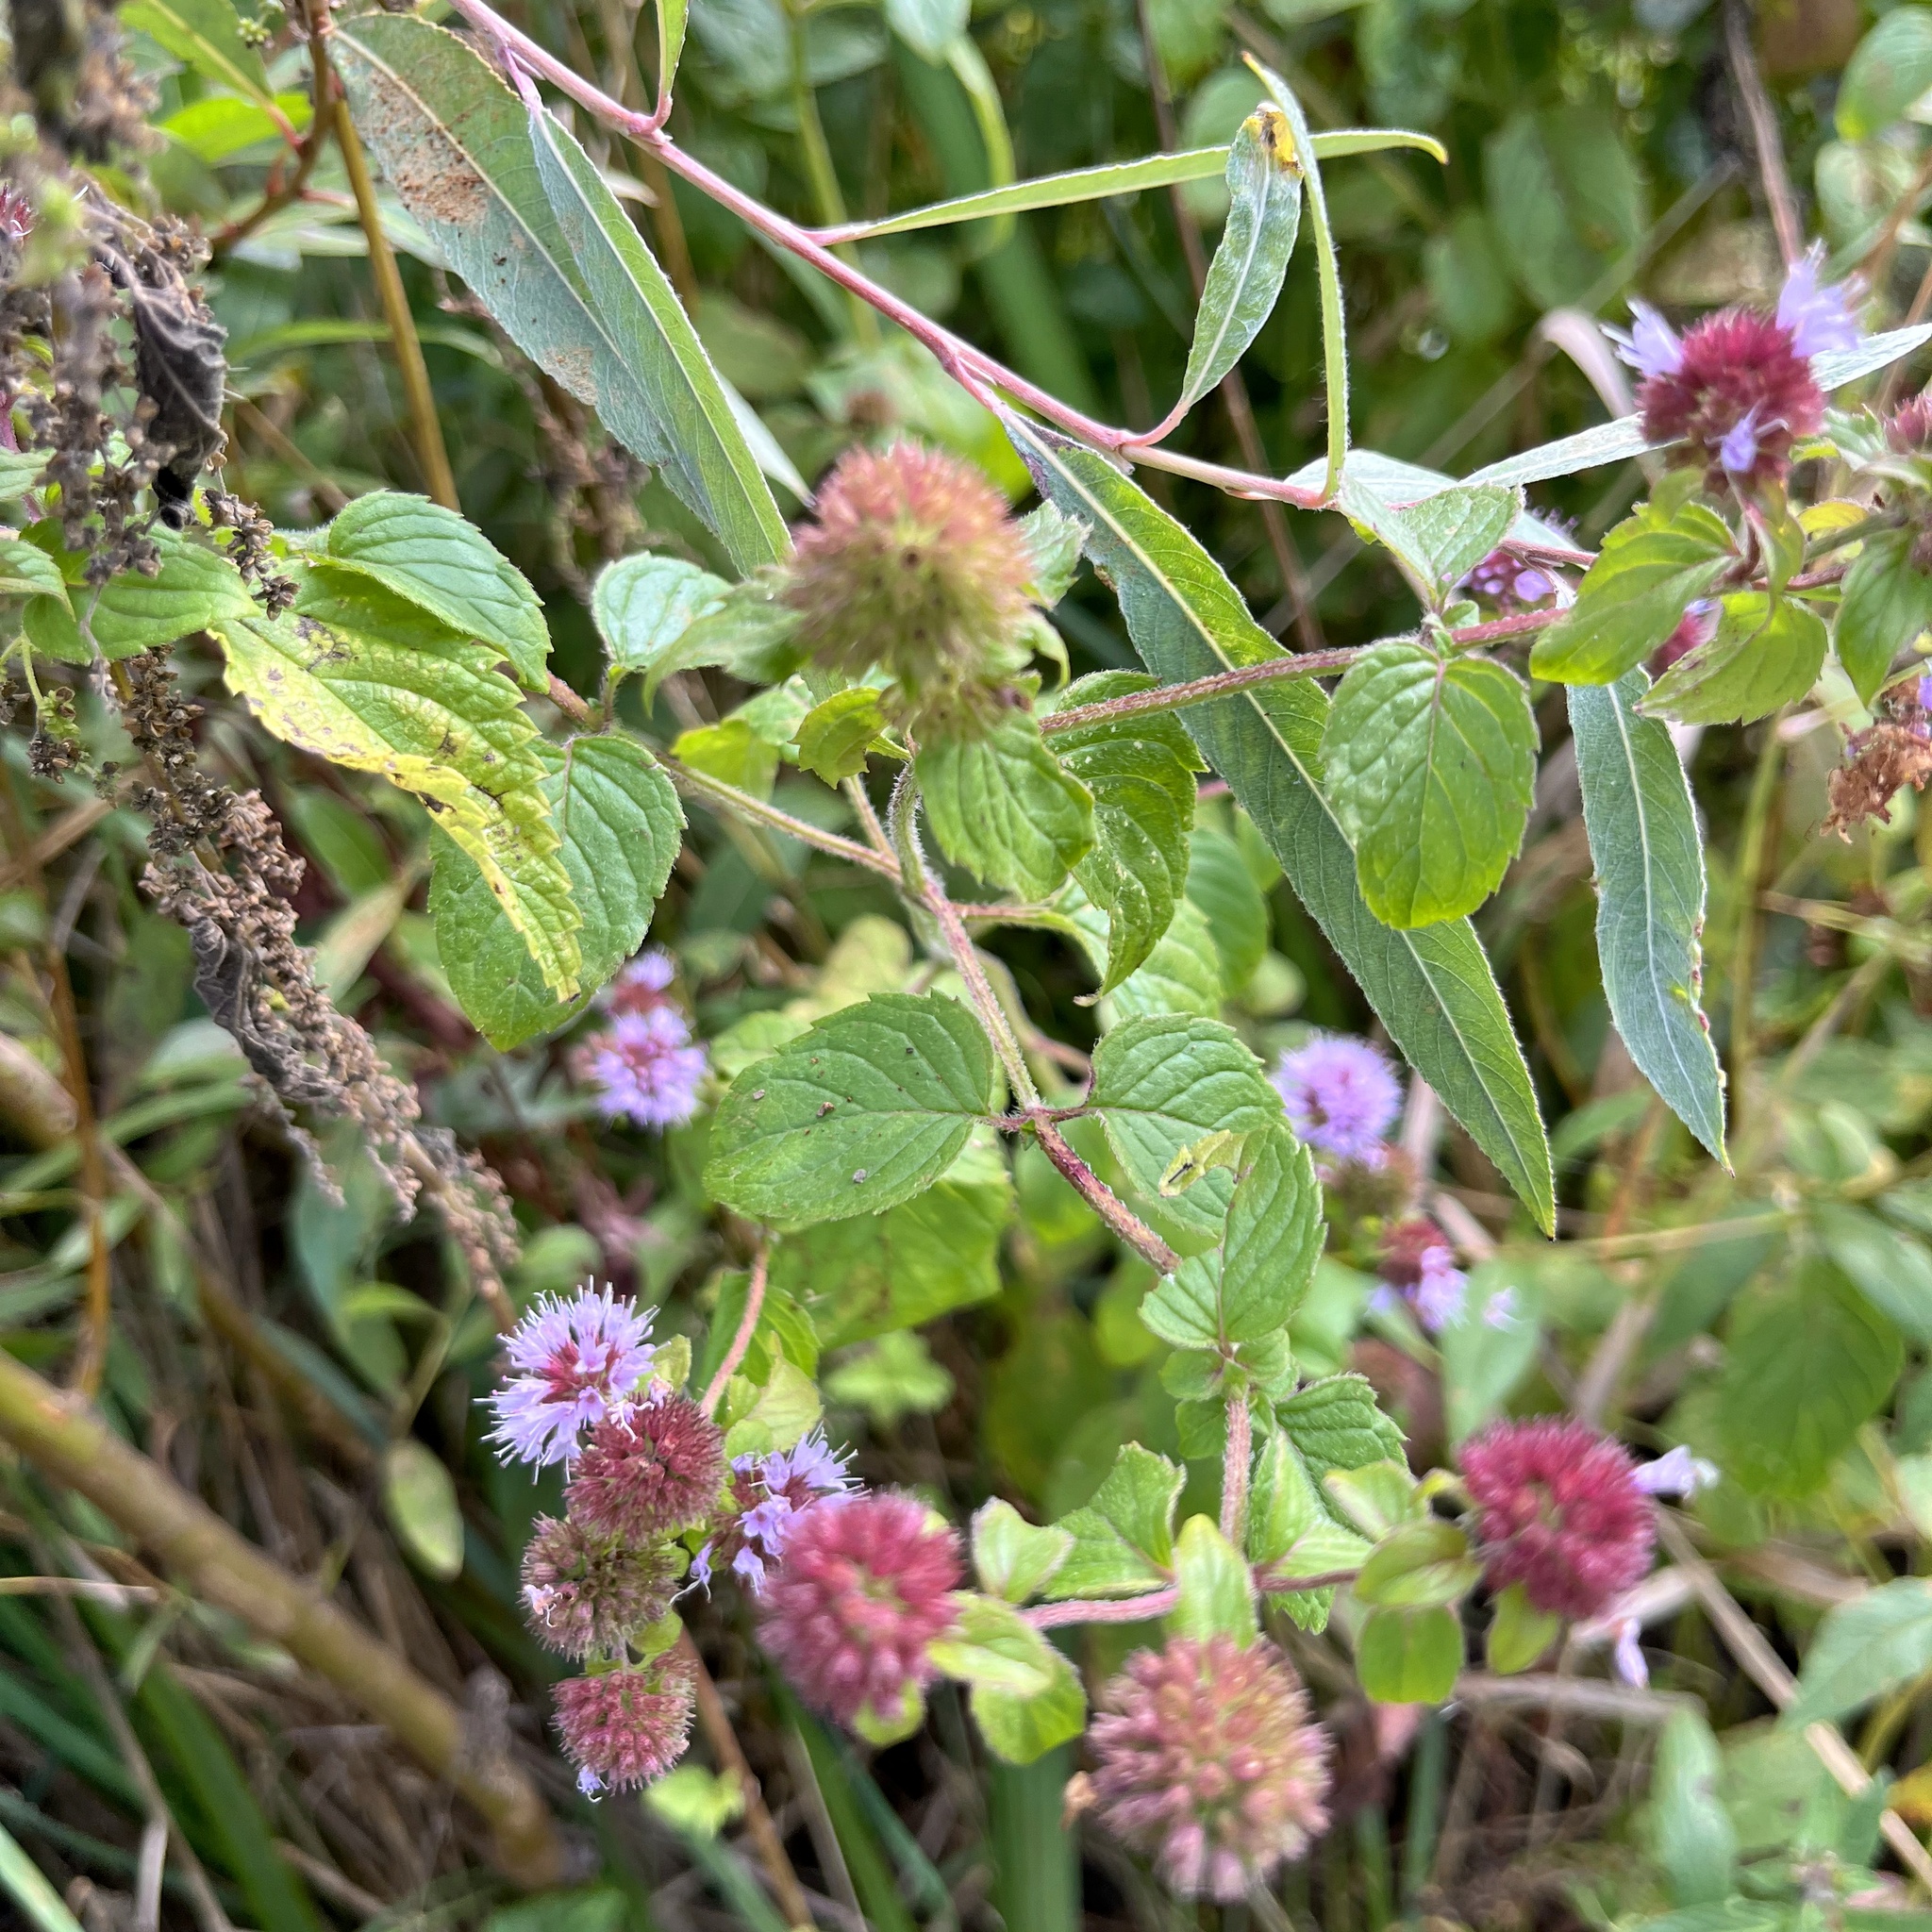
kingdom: Plantae
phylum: Tracheophyta
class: Magnoliopsida
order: Lamiales
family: Lamiaceae
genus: Mentha
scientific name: Mentha aquatica
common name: Water mint
